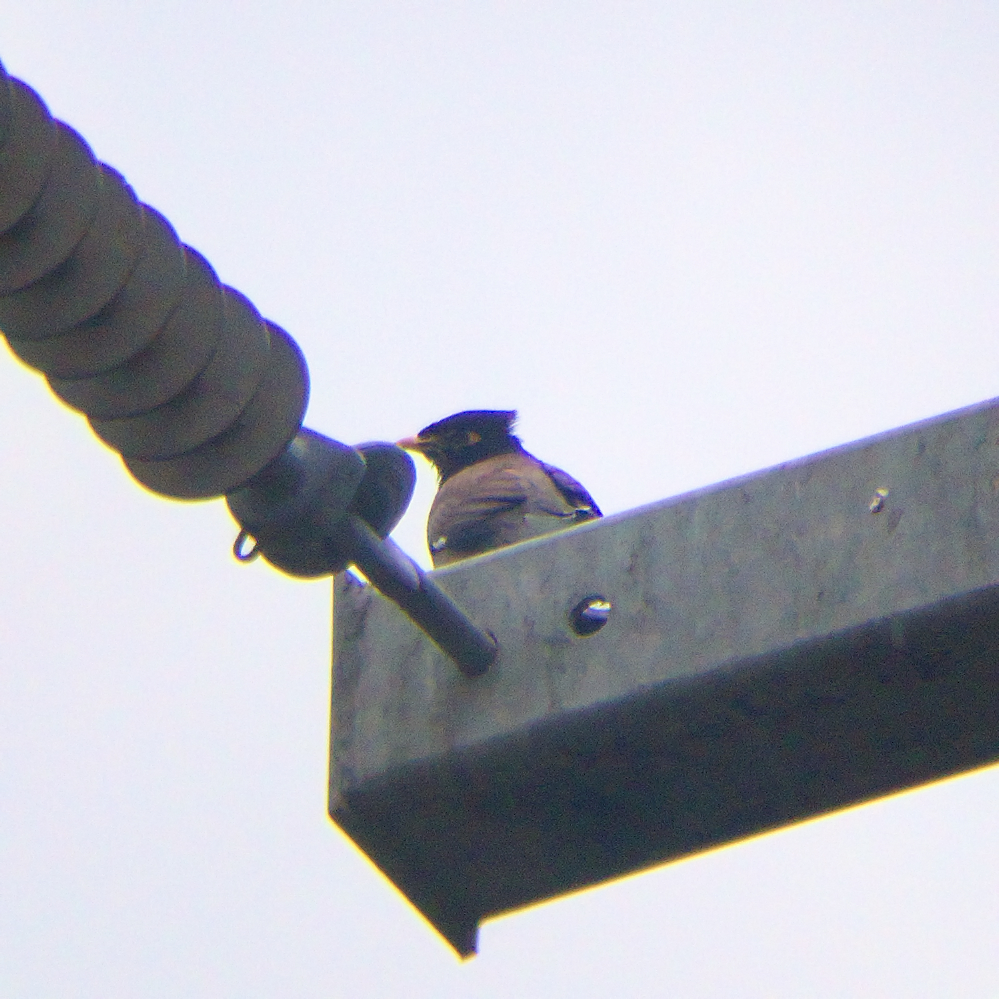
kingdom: Animalia
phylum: Chordata
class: Aves
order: Passeriformes
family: Sturnidae
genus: Acridotheres
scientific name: Acridotheres tristis
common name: Common myna
